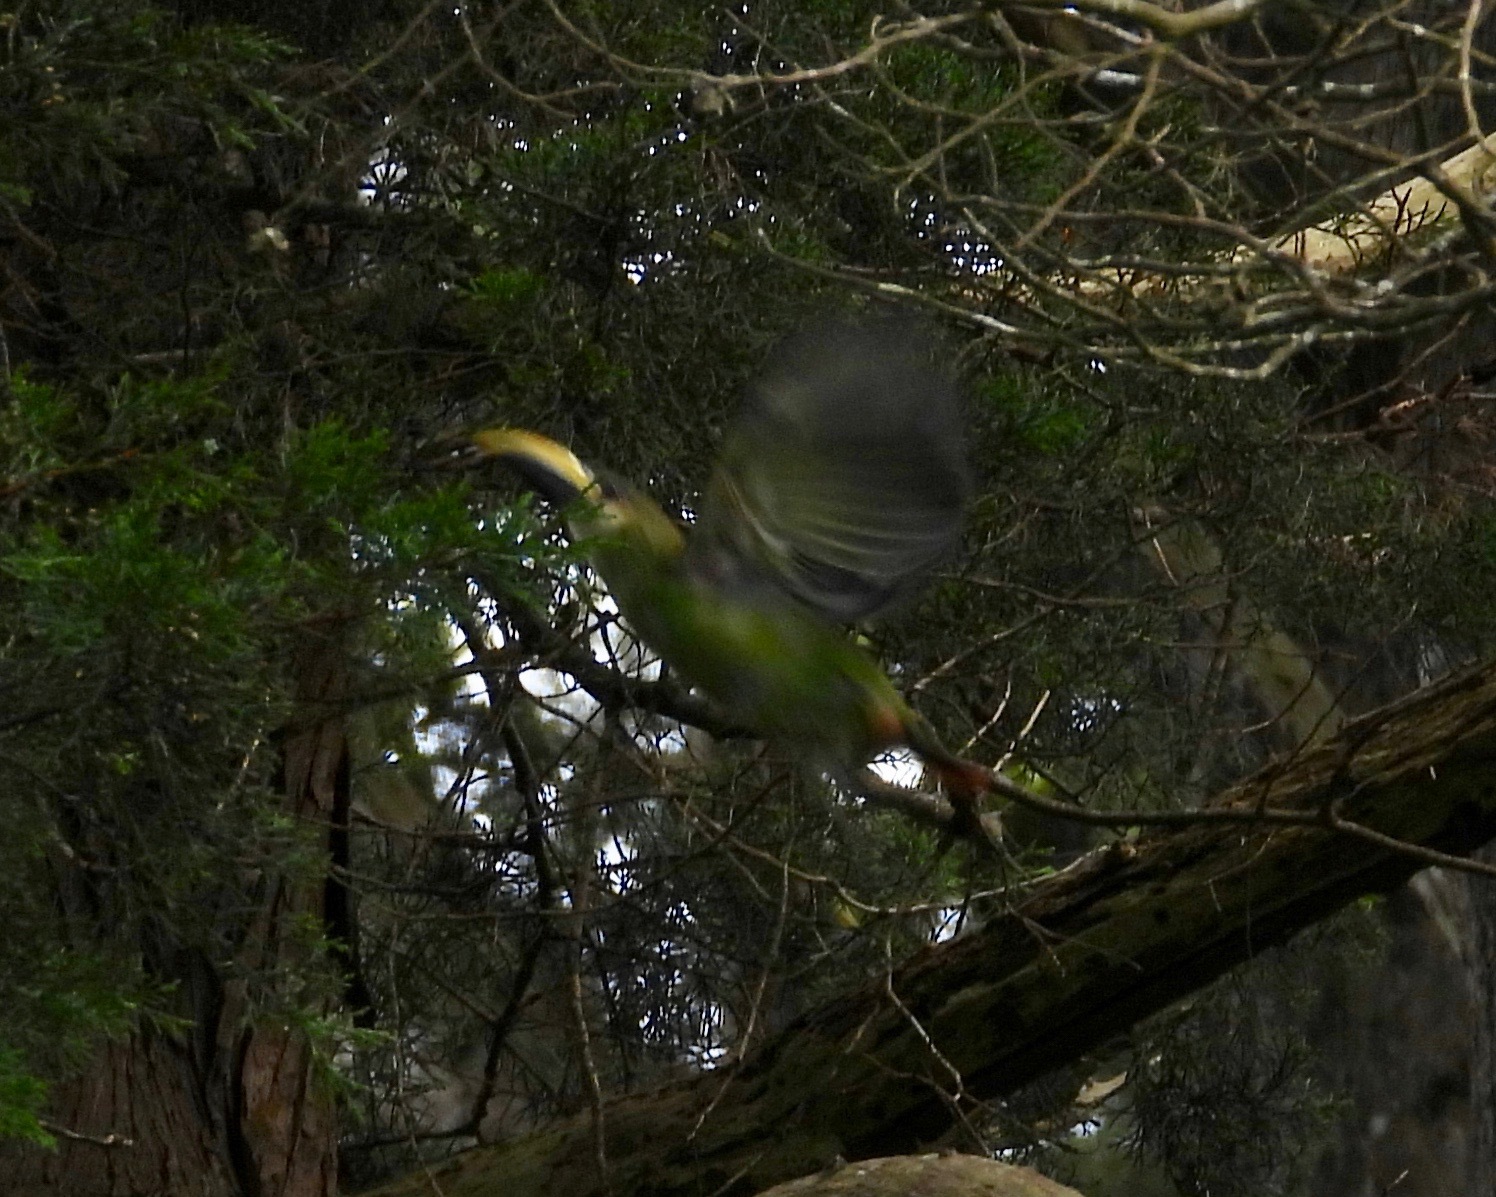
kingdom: Animalia
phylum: Chordata
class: Aves
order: Piciformes
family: Ramphastidae
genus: Aulacorhynchus
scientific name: Aulacorhynchus prasinus
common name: Emerald toucanet
